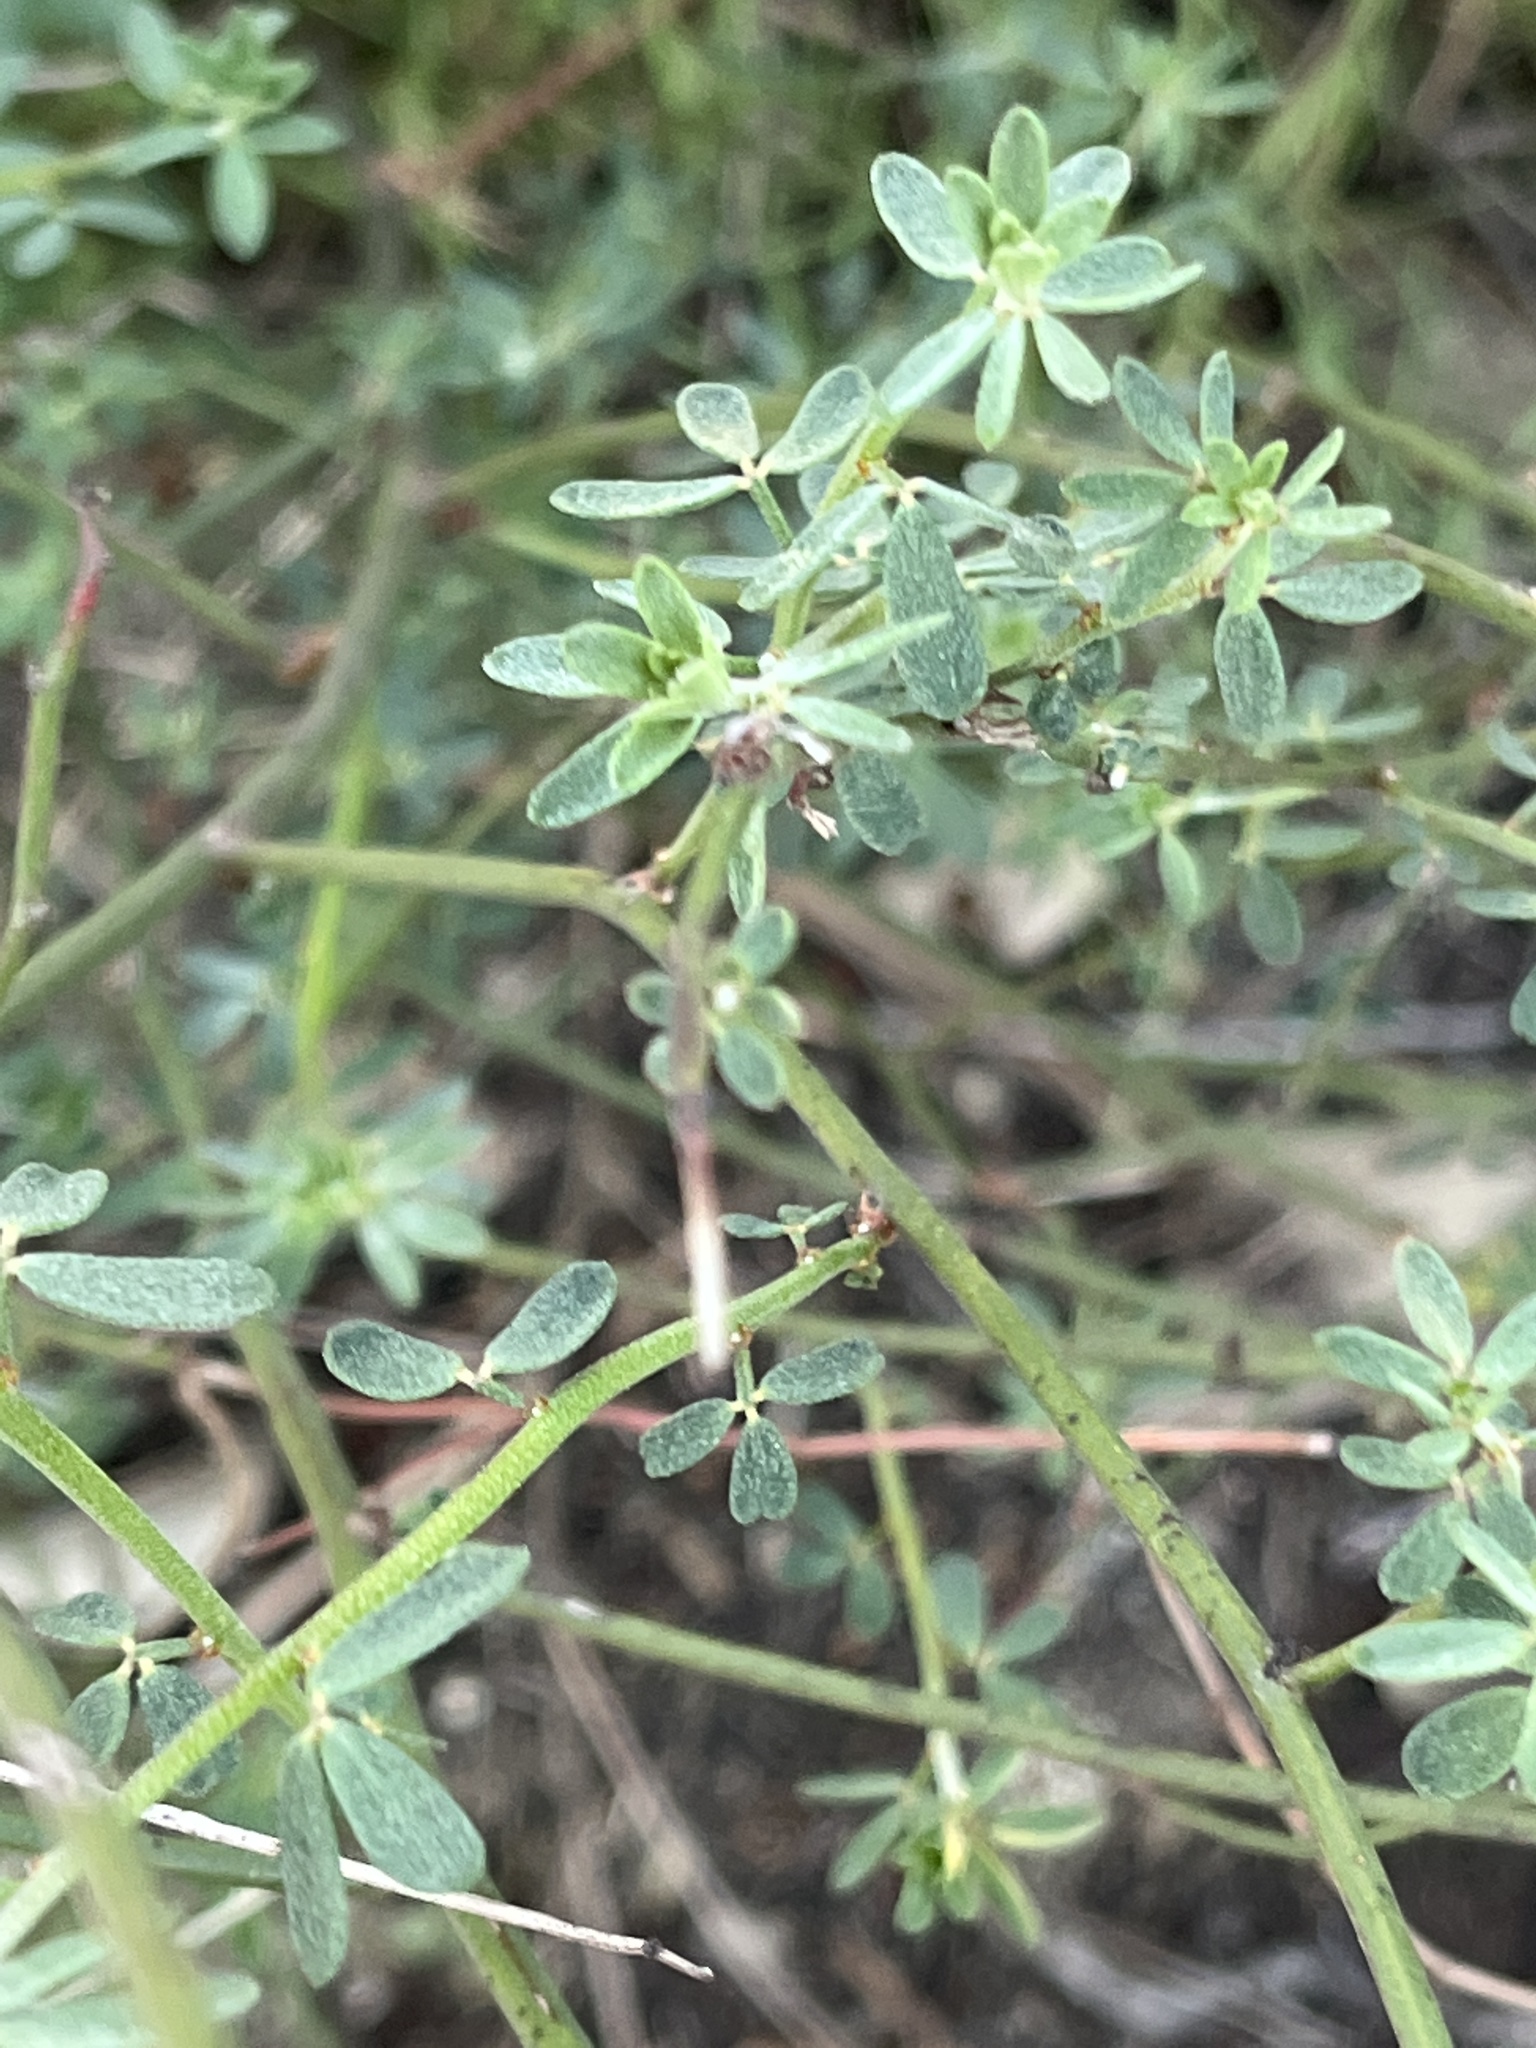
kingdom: Plantae
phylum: Tracheophyta
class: Magnoliopsida
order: Fabales
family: Fabaceae
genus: Acmispon
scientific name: Acmispon glaber
